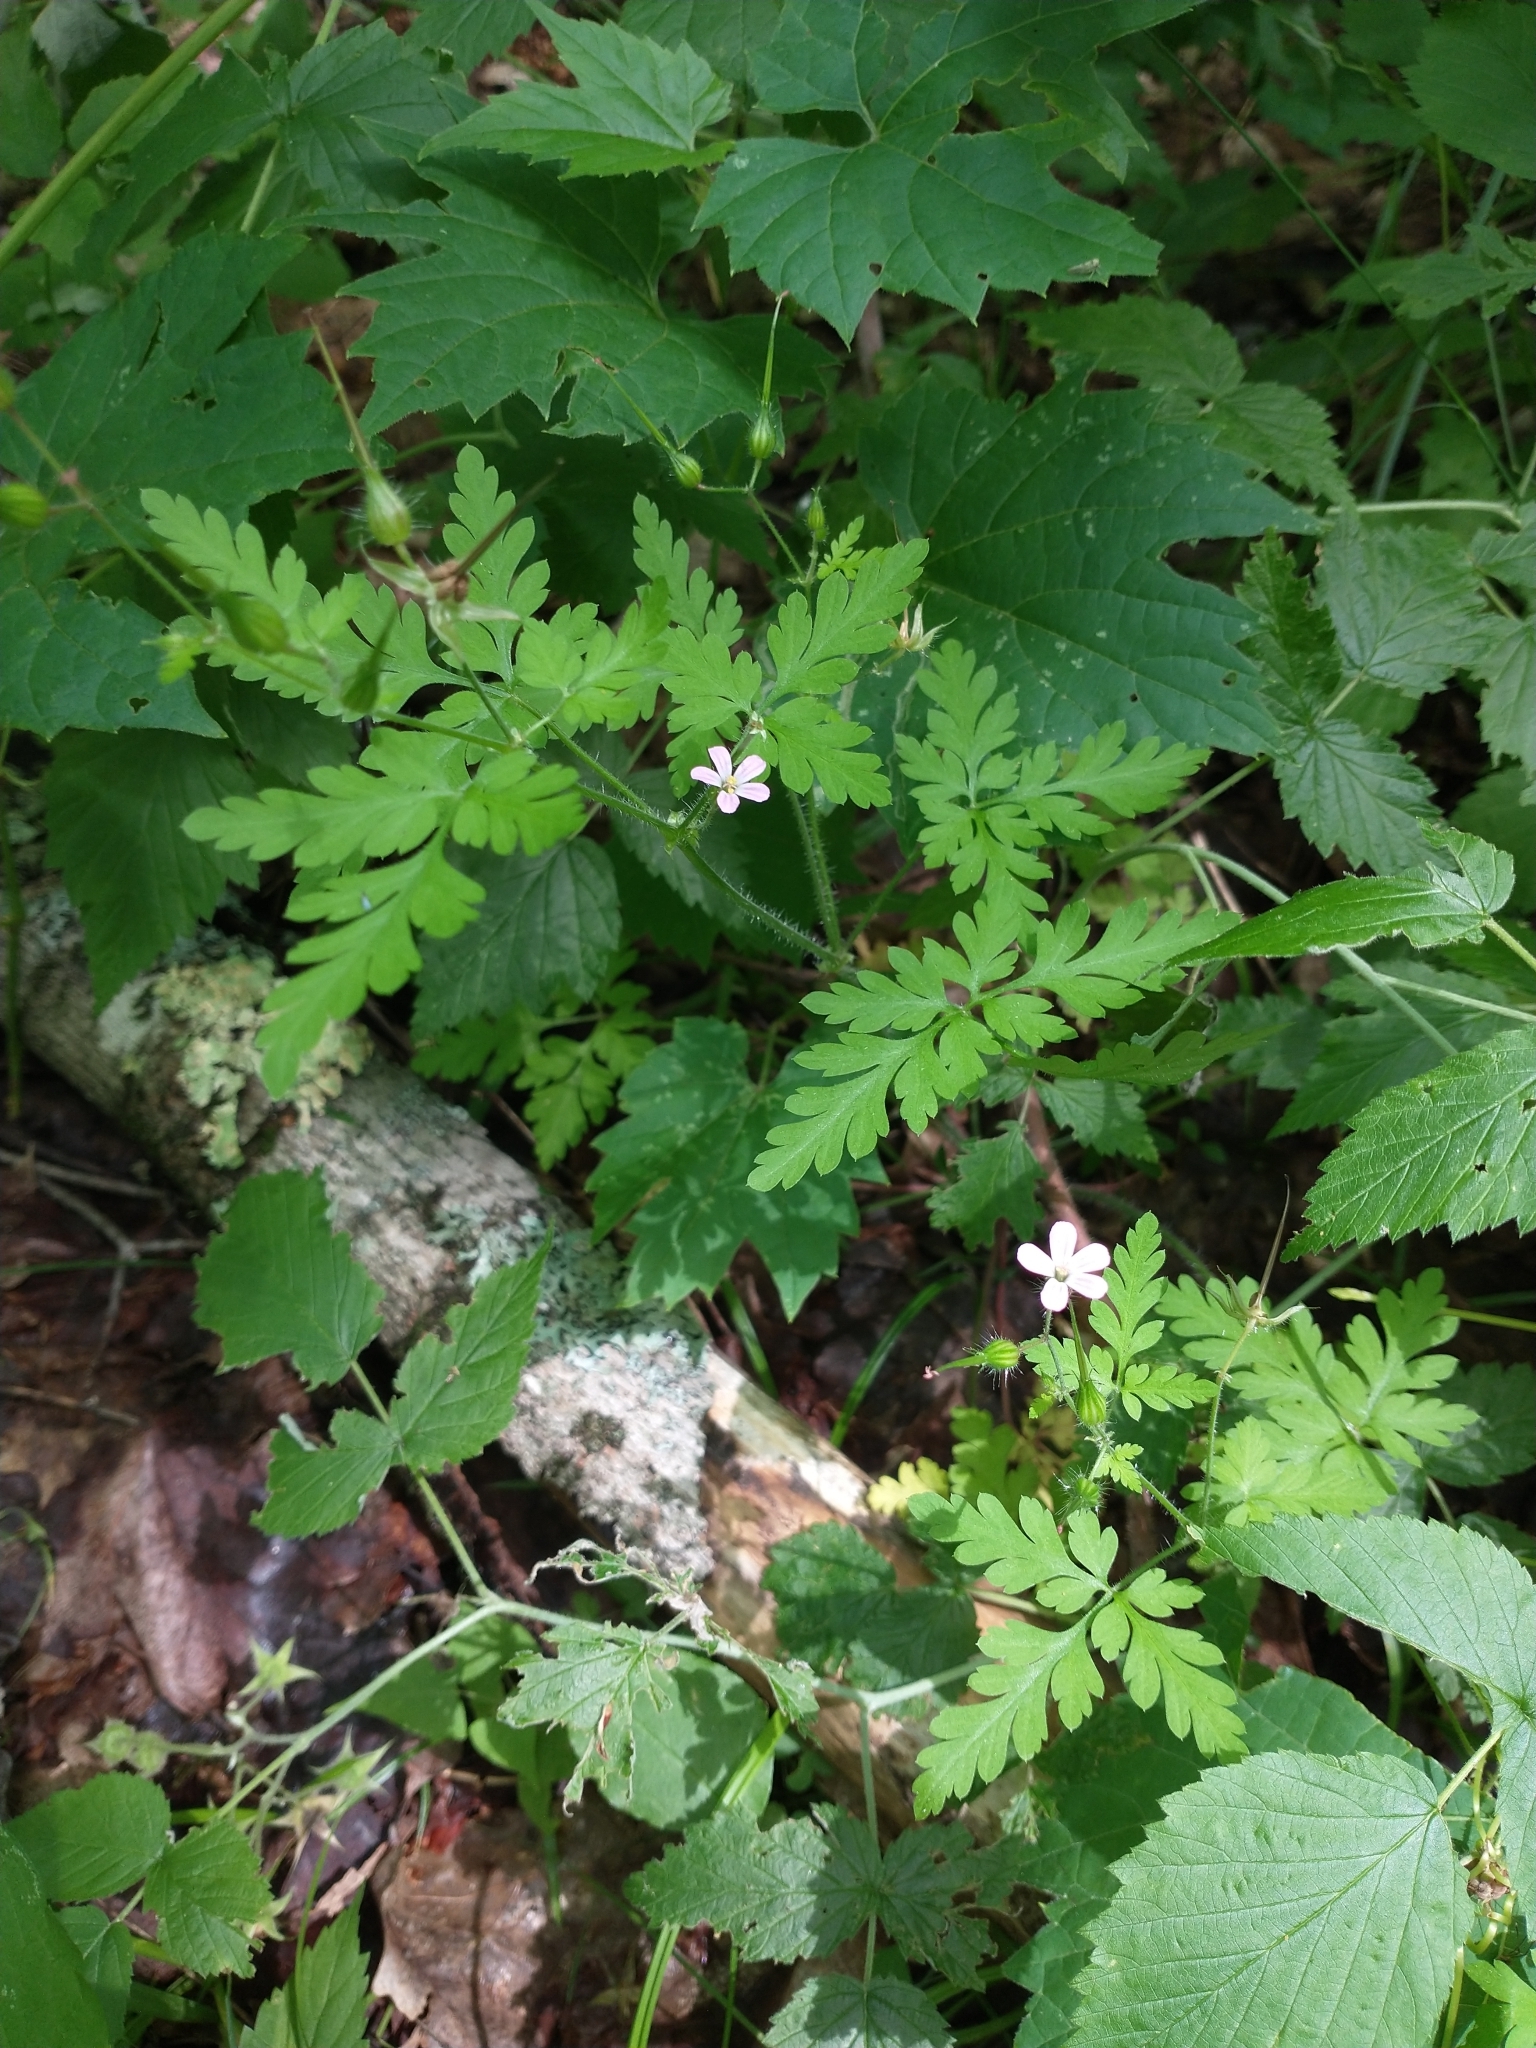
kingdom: Plantae
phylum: Tracheophyta
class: Magnoliopsida
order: Geraniales
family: Geraniaceae
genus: Geranium
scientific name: Geranium robertianum
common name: Herb-robert
